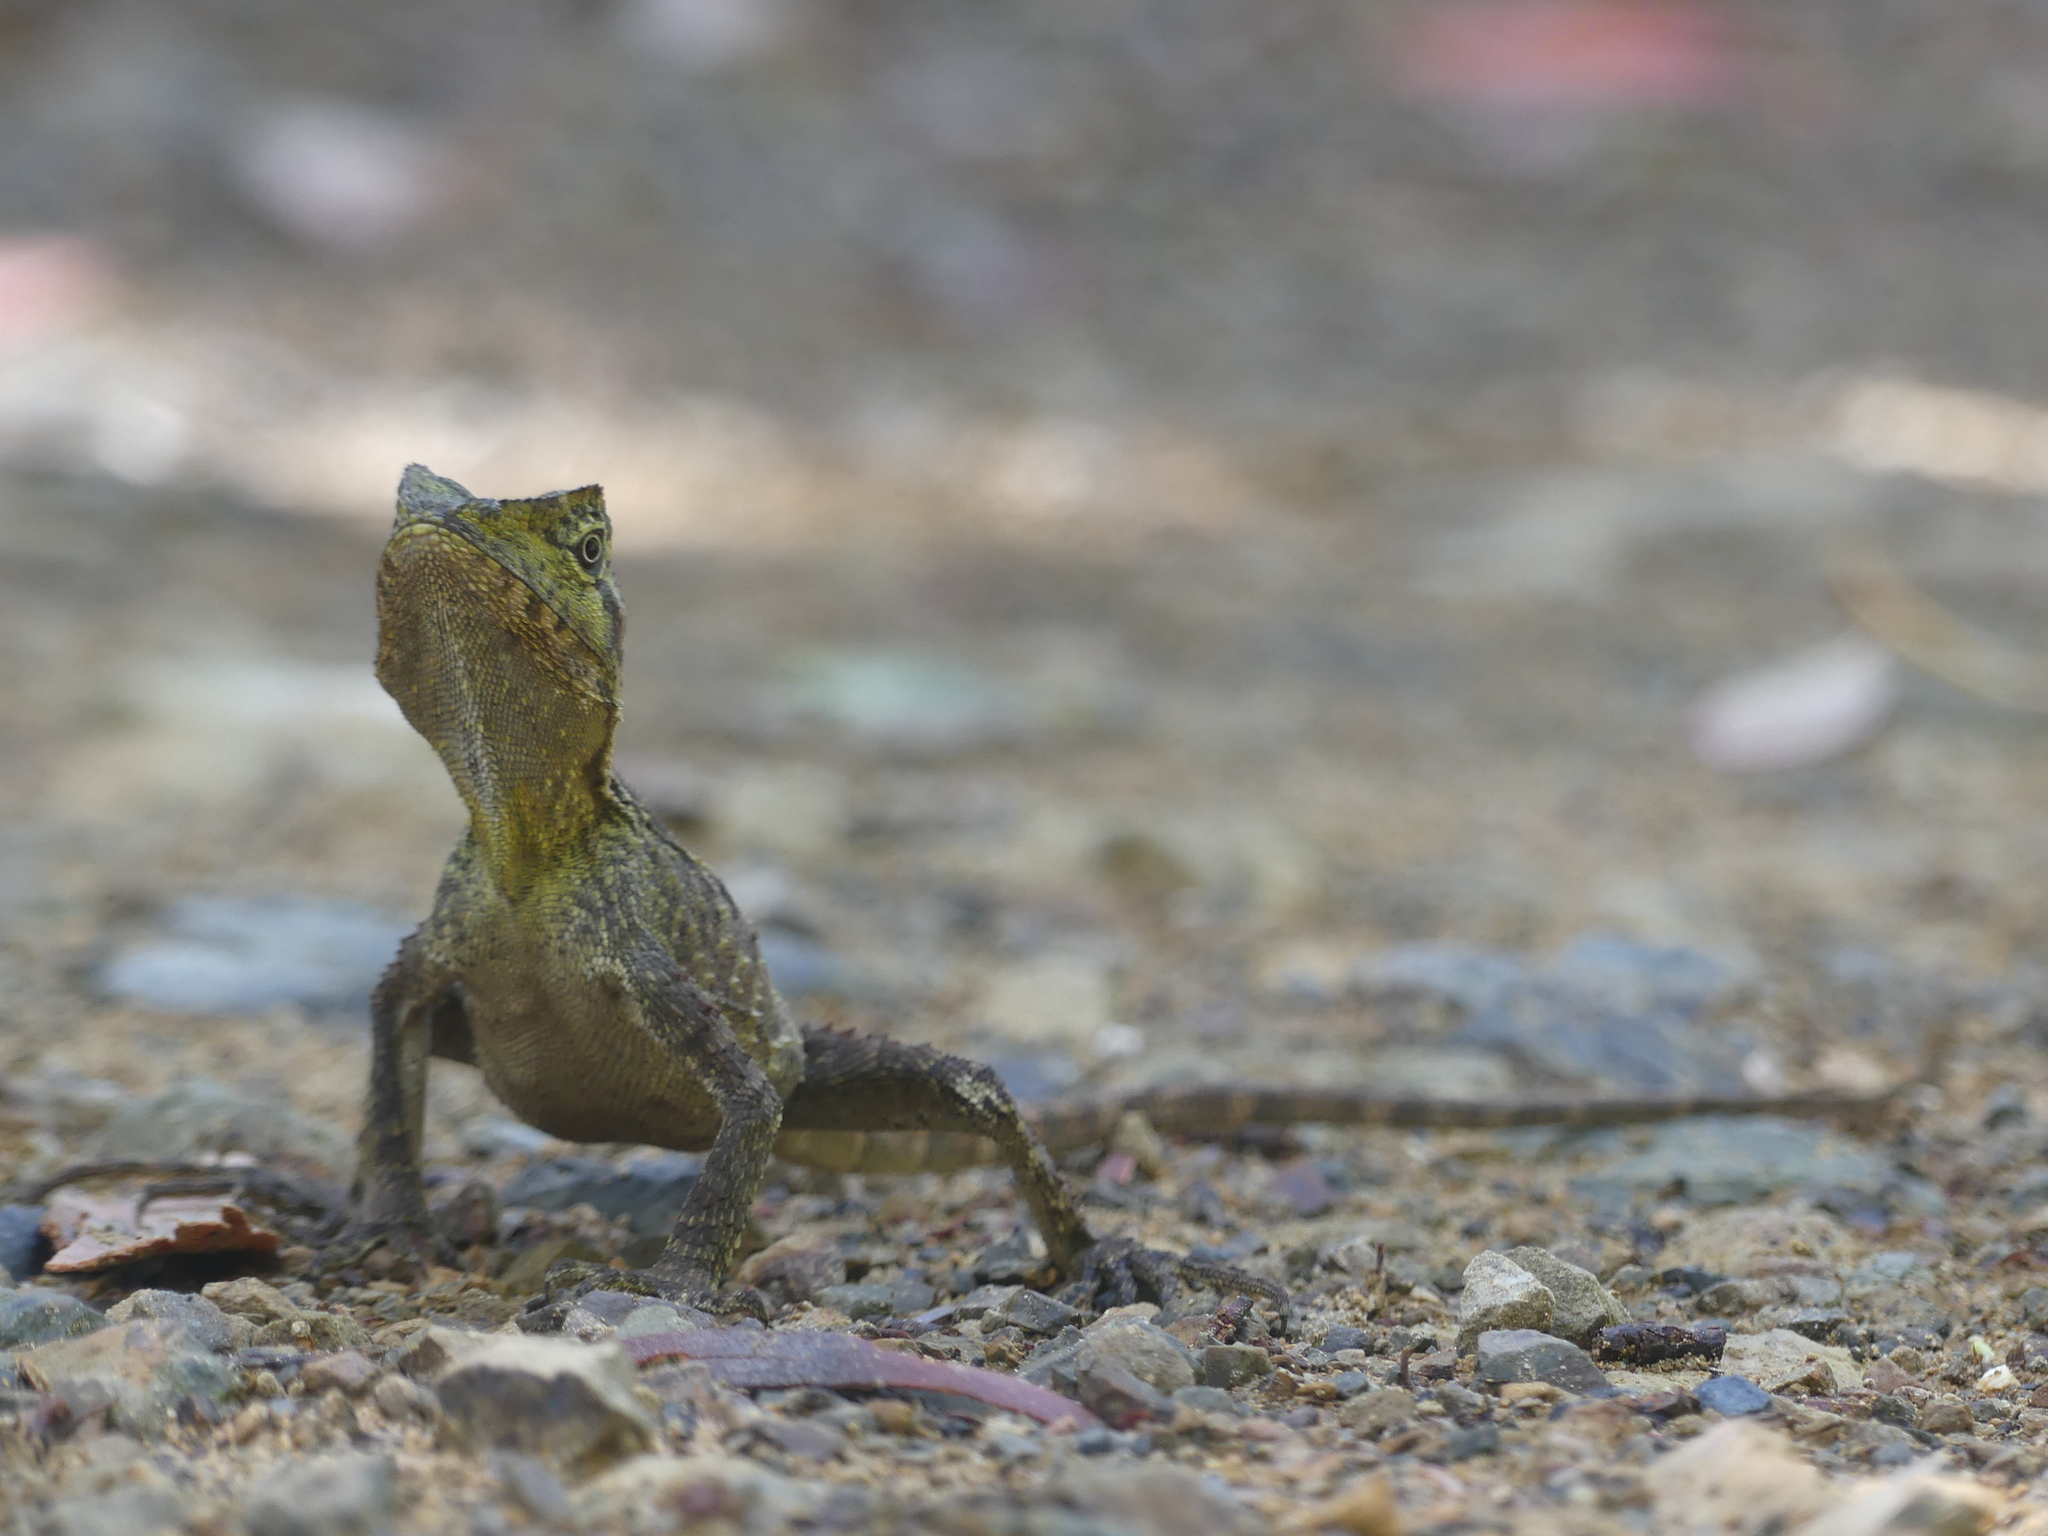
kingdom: Animalia
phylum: Chordata
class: Squamata
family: Agamidae
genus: Lophosaurus
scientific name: Lophosaurus spinipes
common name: Southern angle-headed dragon
